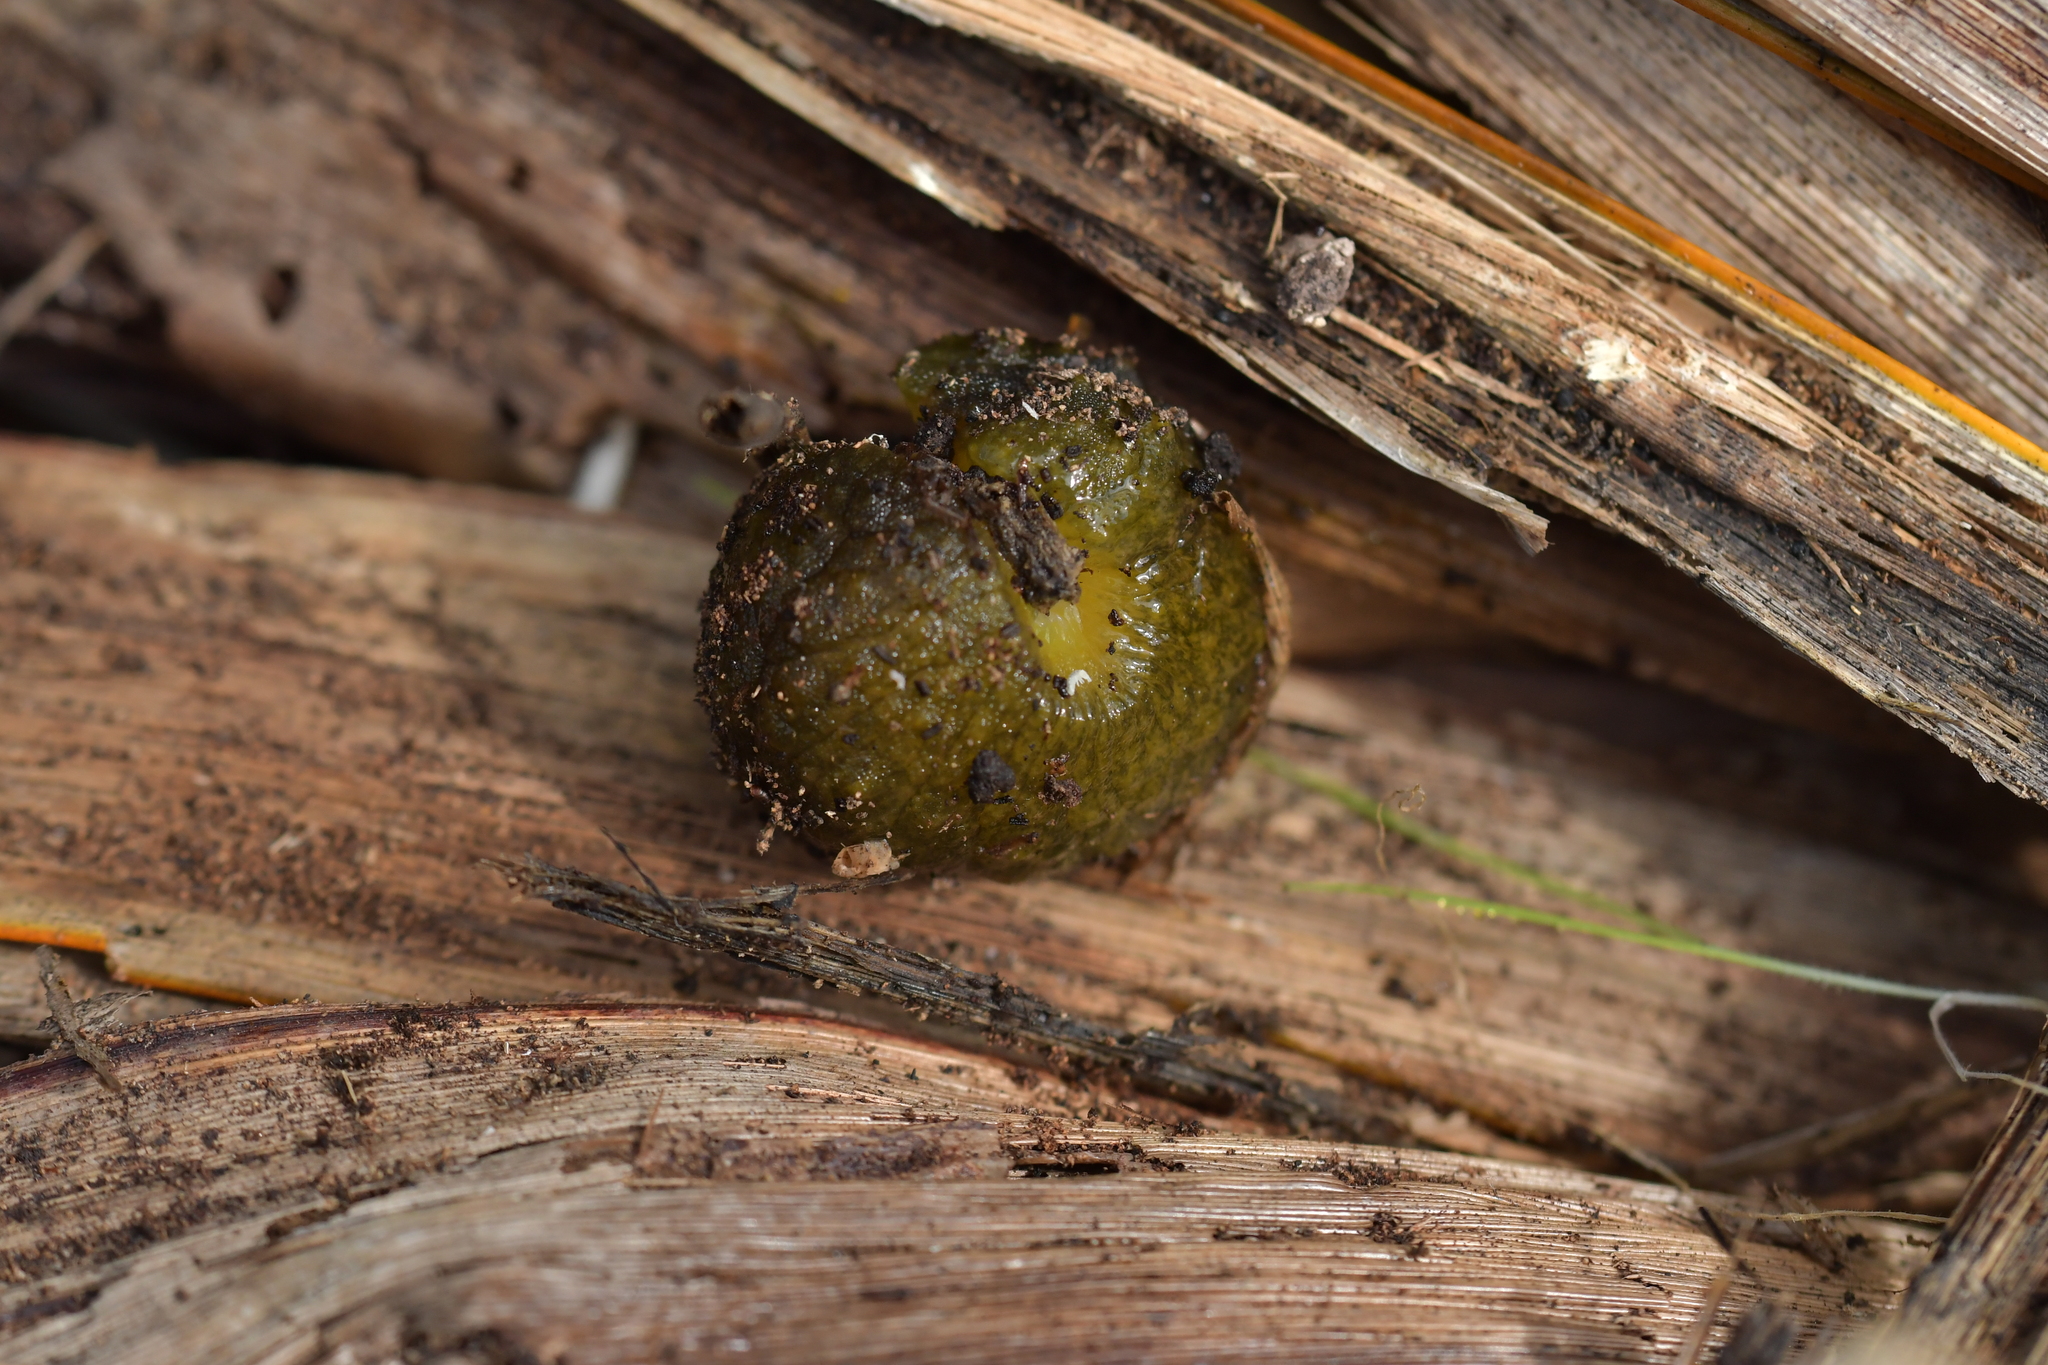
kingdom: Animalia
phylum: Mollusca
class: Gastropoda
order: Stylommatophora
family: Athoracophoridae
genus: Athoracophorus
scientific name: Athoracophorus papillatus
